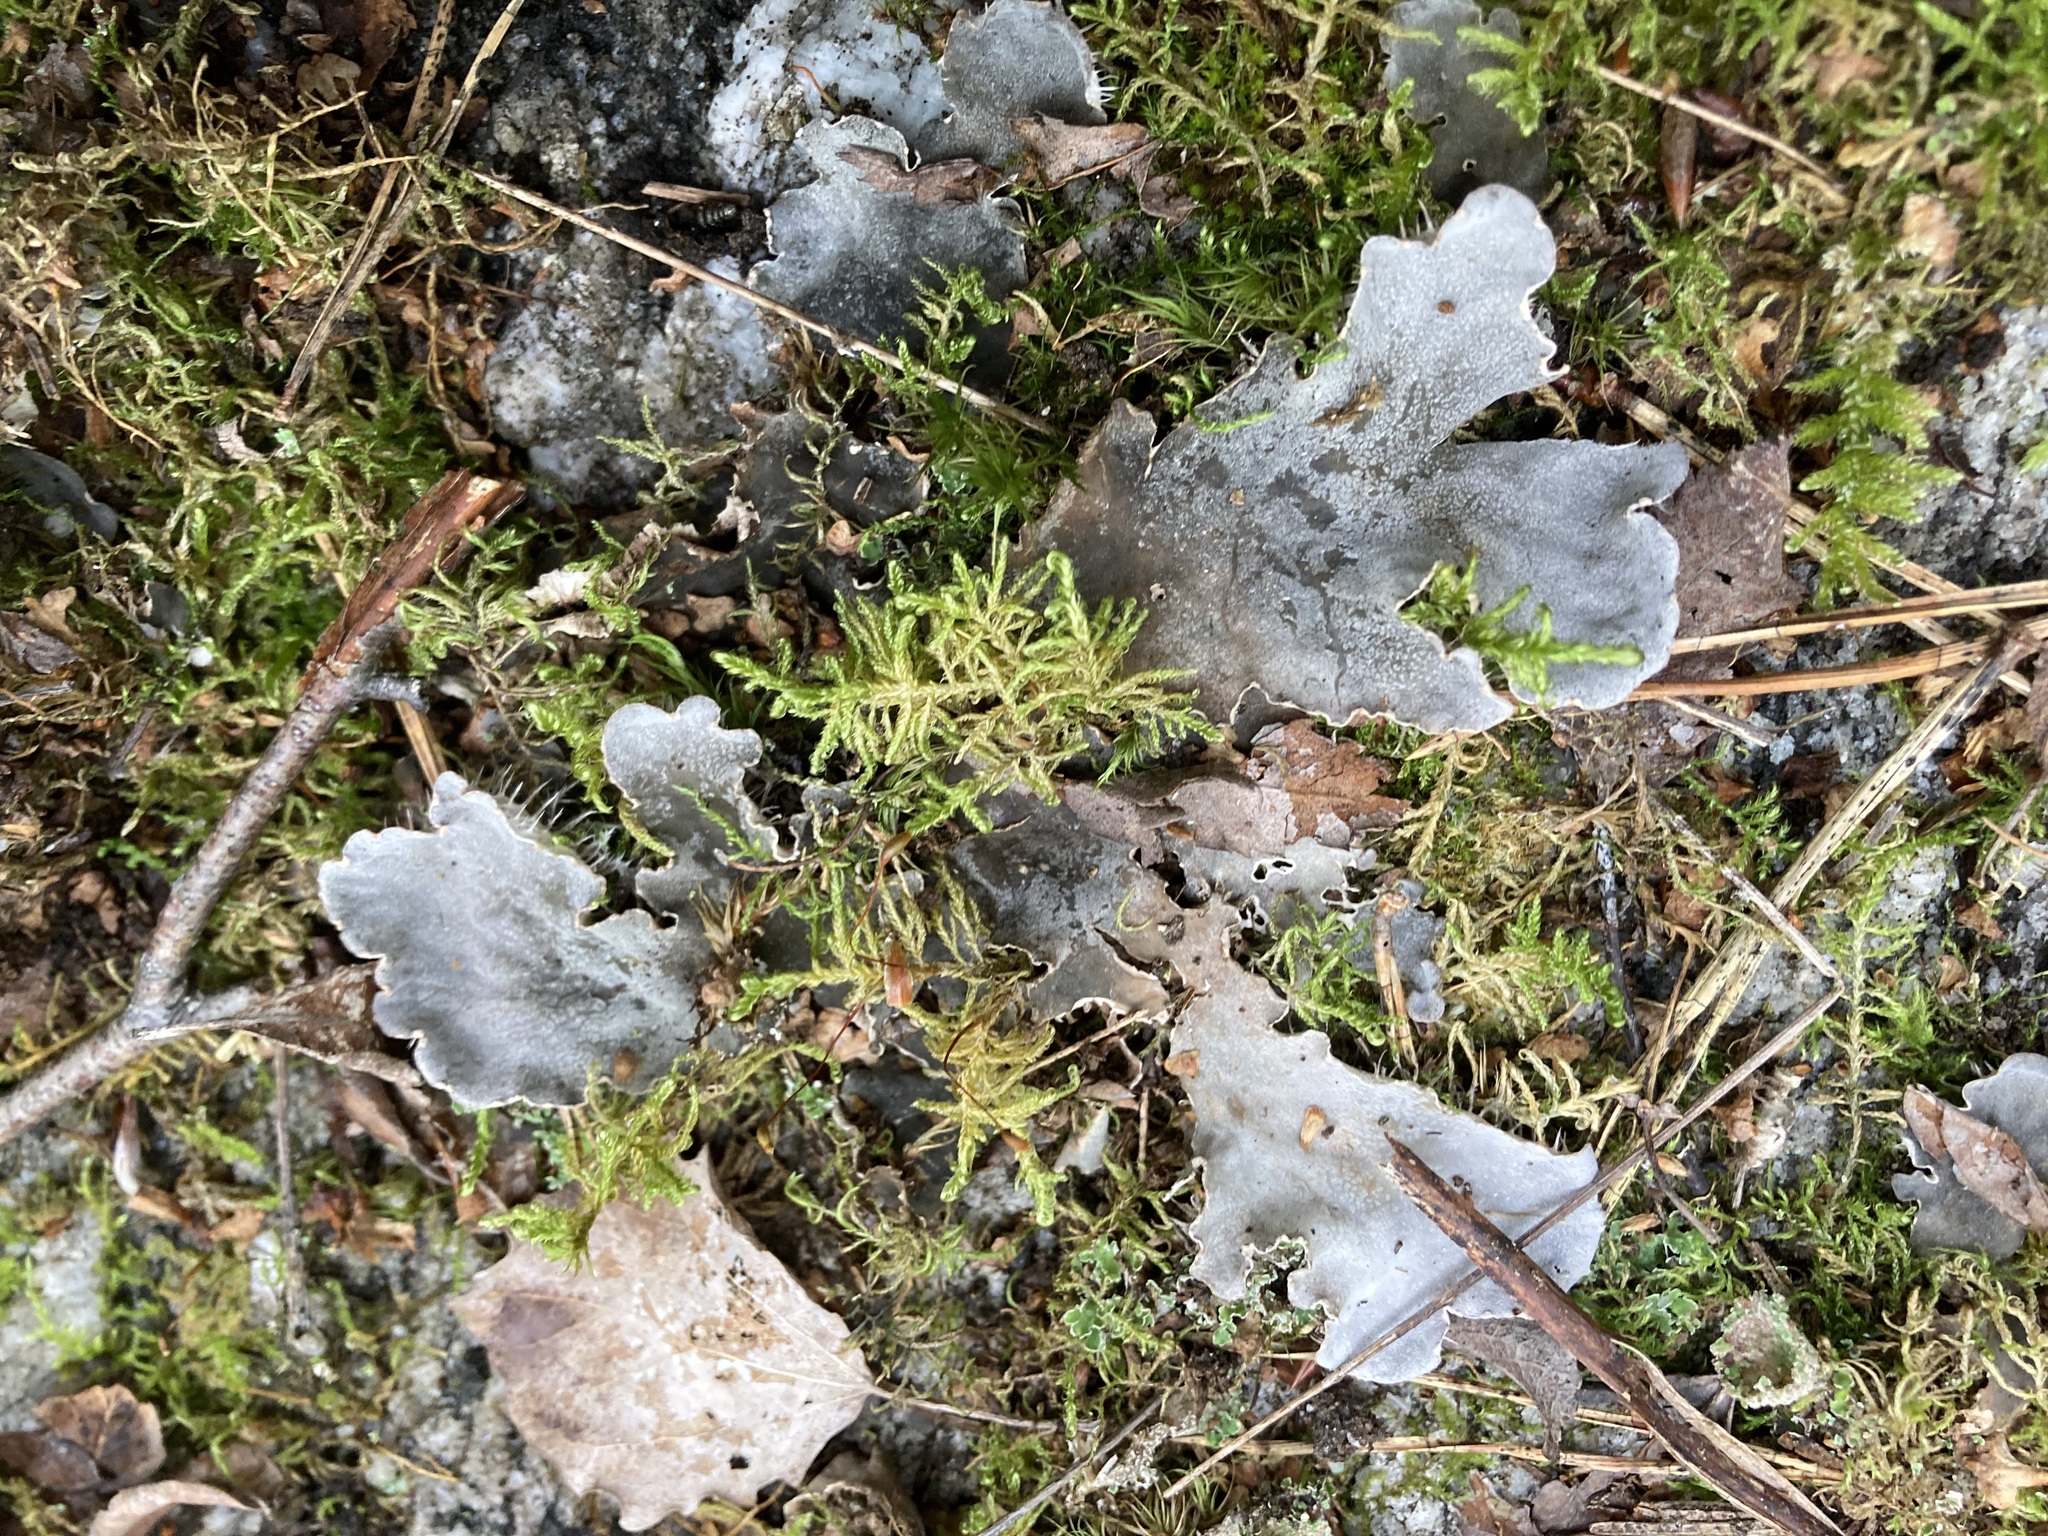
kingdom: Fungi
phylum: Ascomycota
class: Lecanoromycetes
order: Peltigerales
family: Peltigeraceae
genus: Peltigera
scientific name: Peltigera canina
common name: Dog pelt lichen
